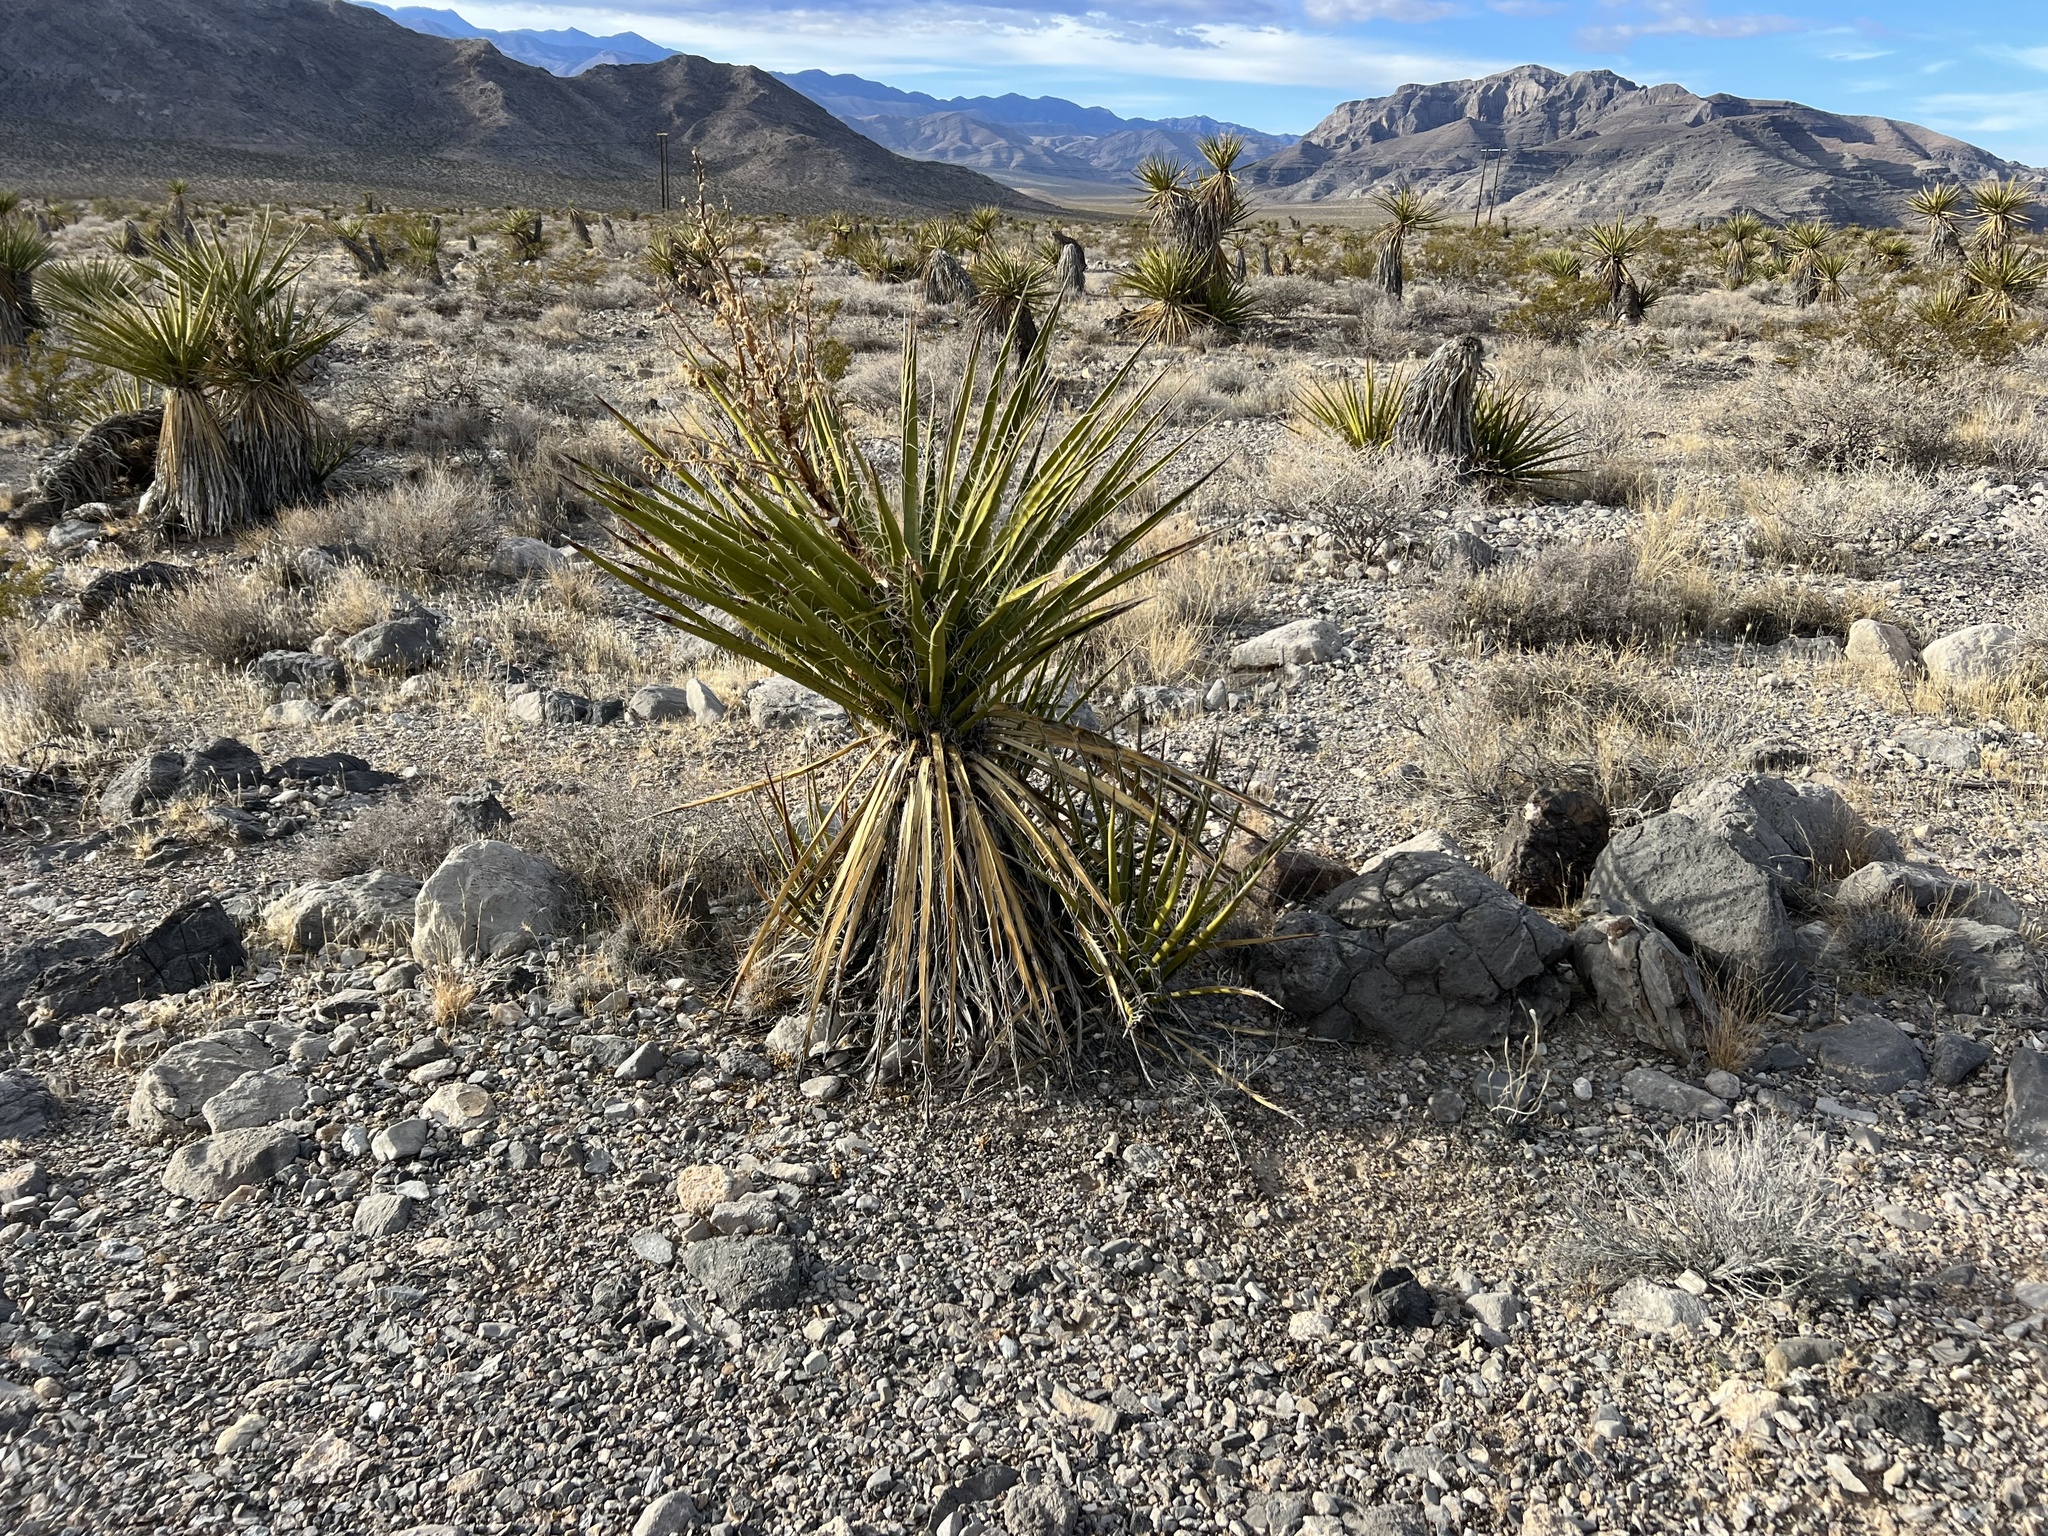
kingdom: Plantae
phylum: Tracheophyta
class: Liliopsida
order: Asparagales
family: Asparagaceae
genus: Yucca
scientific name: Yucca schidigera
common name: Mojave yucca
